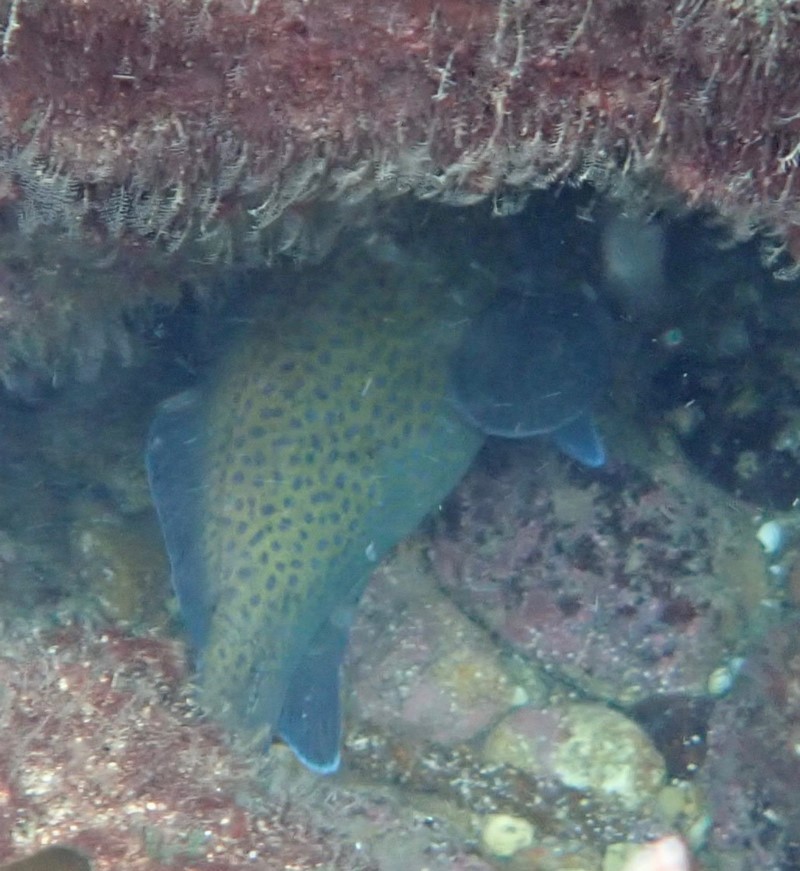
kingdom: Animalia
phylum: Chordata
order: Perciformes
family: Serranidae
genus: Acanthistius
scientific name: Acanthistius ocellatus
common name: Eastern wirrah
